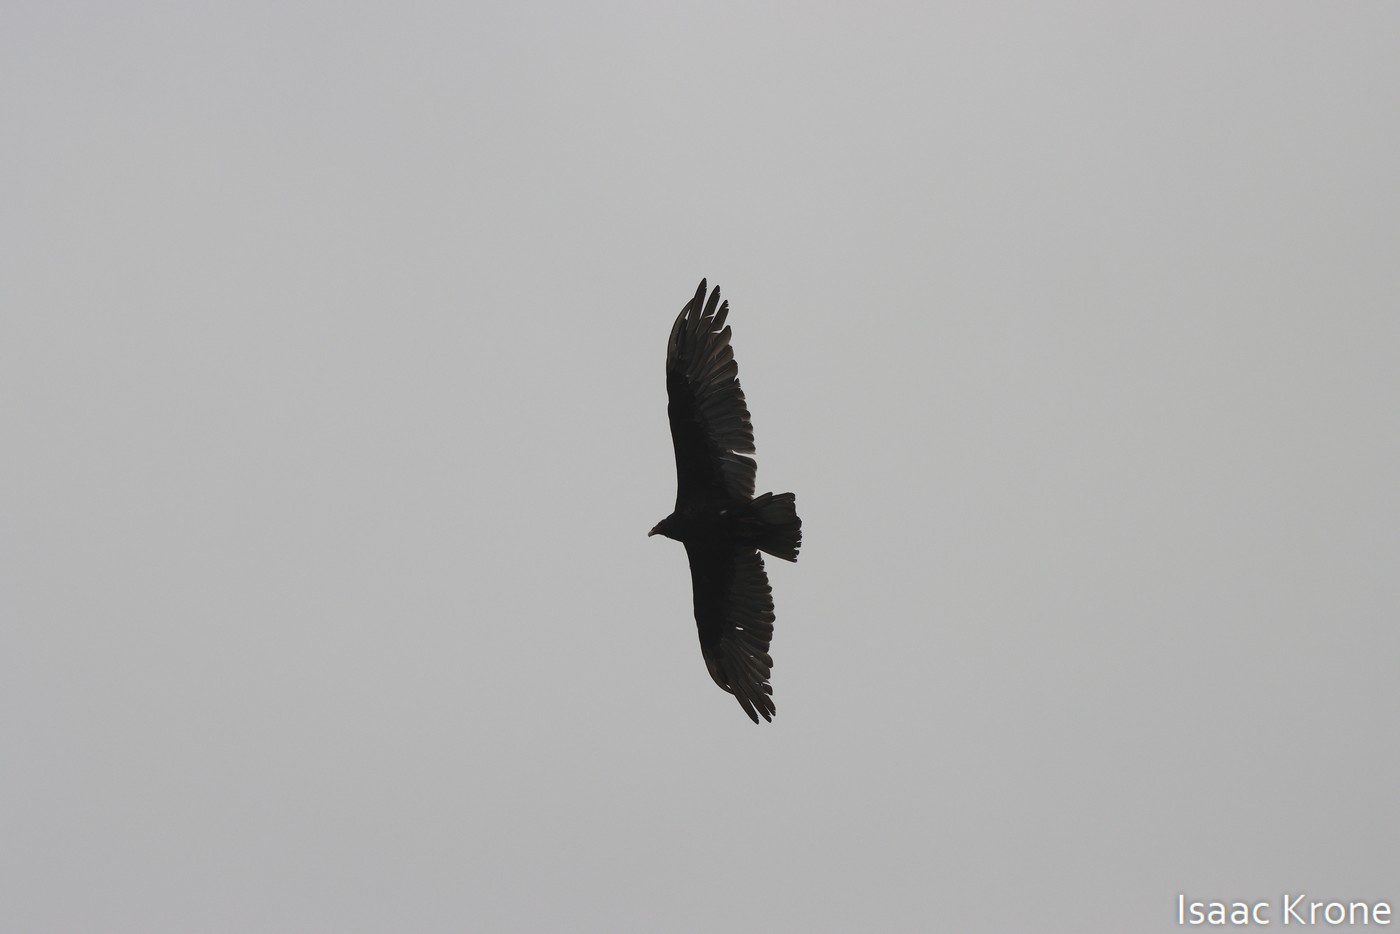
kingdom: Animalia
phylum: Chordata
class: Aves
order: Accipitriformes
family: Cathartidae
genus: Cathartes
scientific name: Cathartes aura
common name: Turkey vulture
